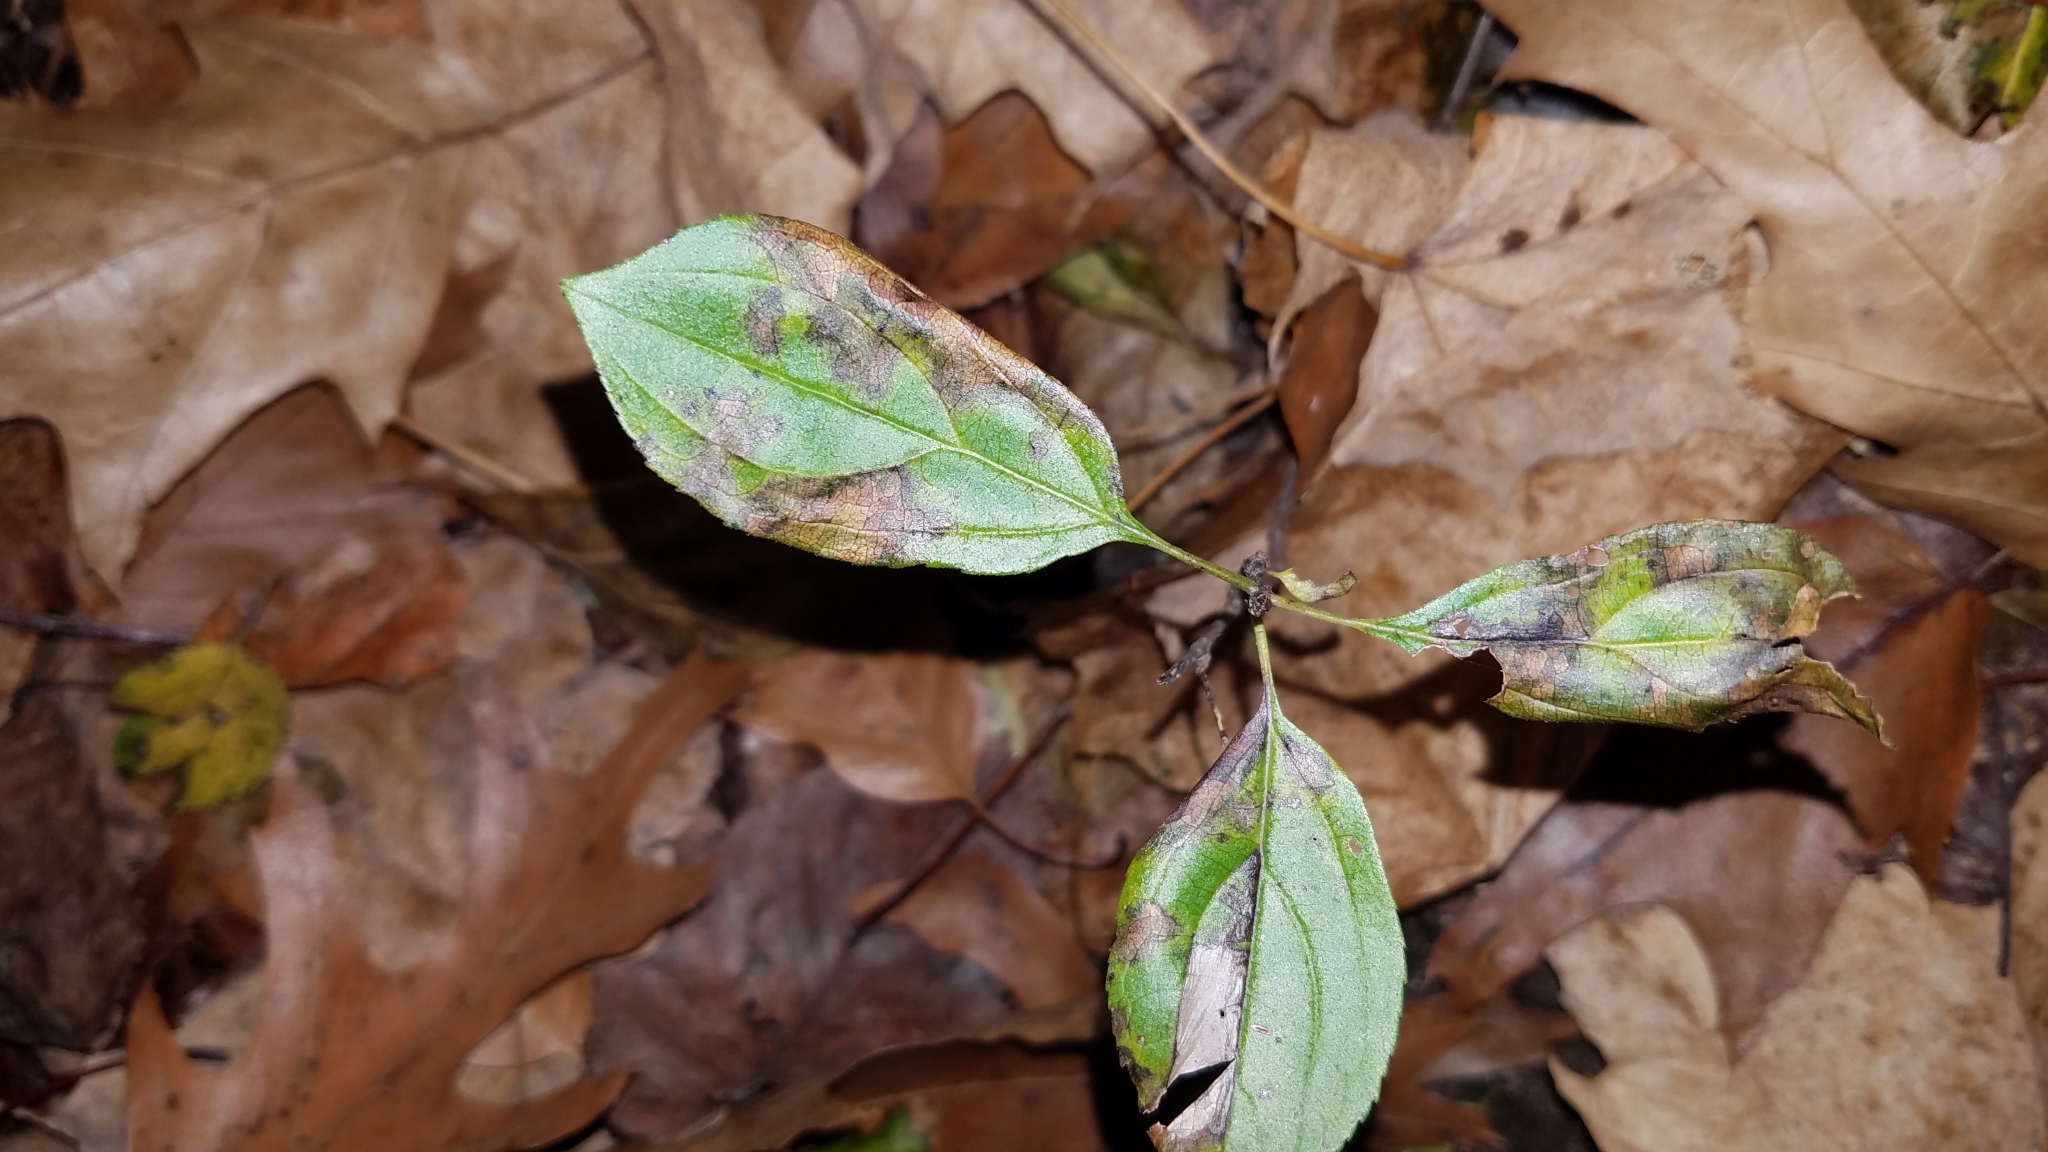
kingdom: Plantae
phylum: Tracheophyta
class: Magnoliopsida
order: Rosales
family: Rhamnaceae
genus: Rhamnus
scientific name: Rhamnus cathartica
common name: Common buckthorn
